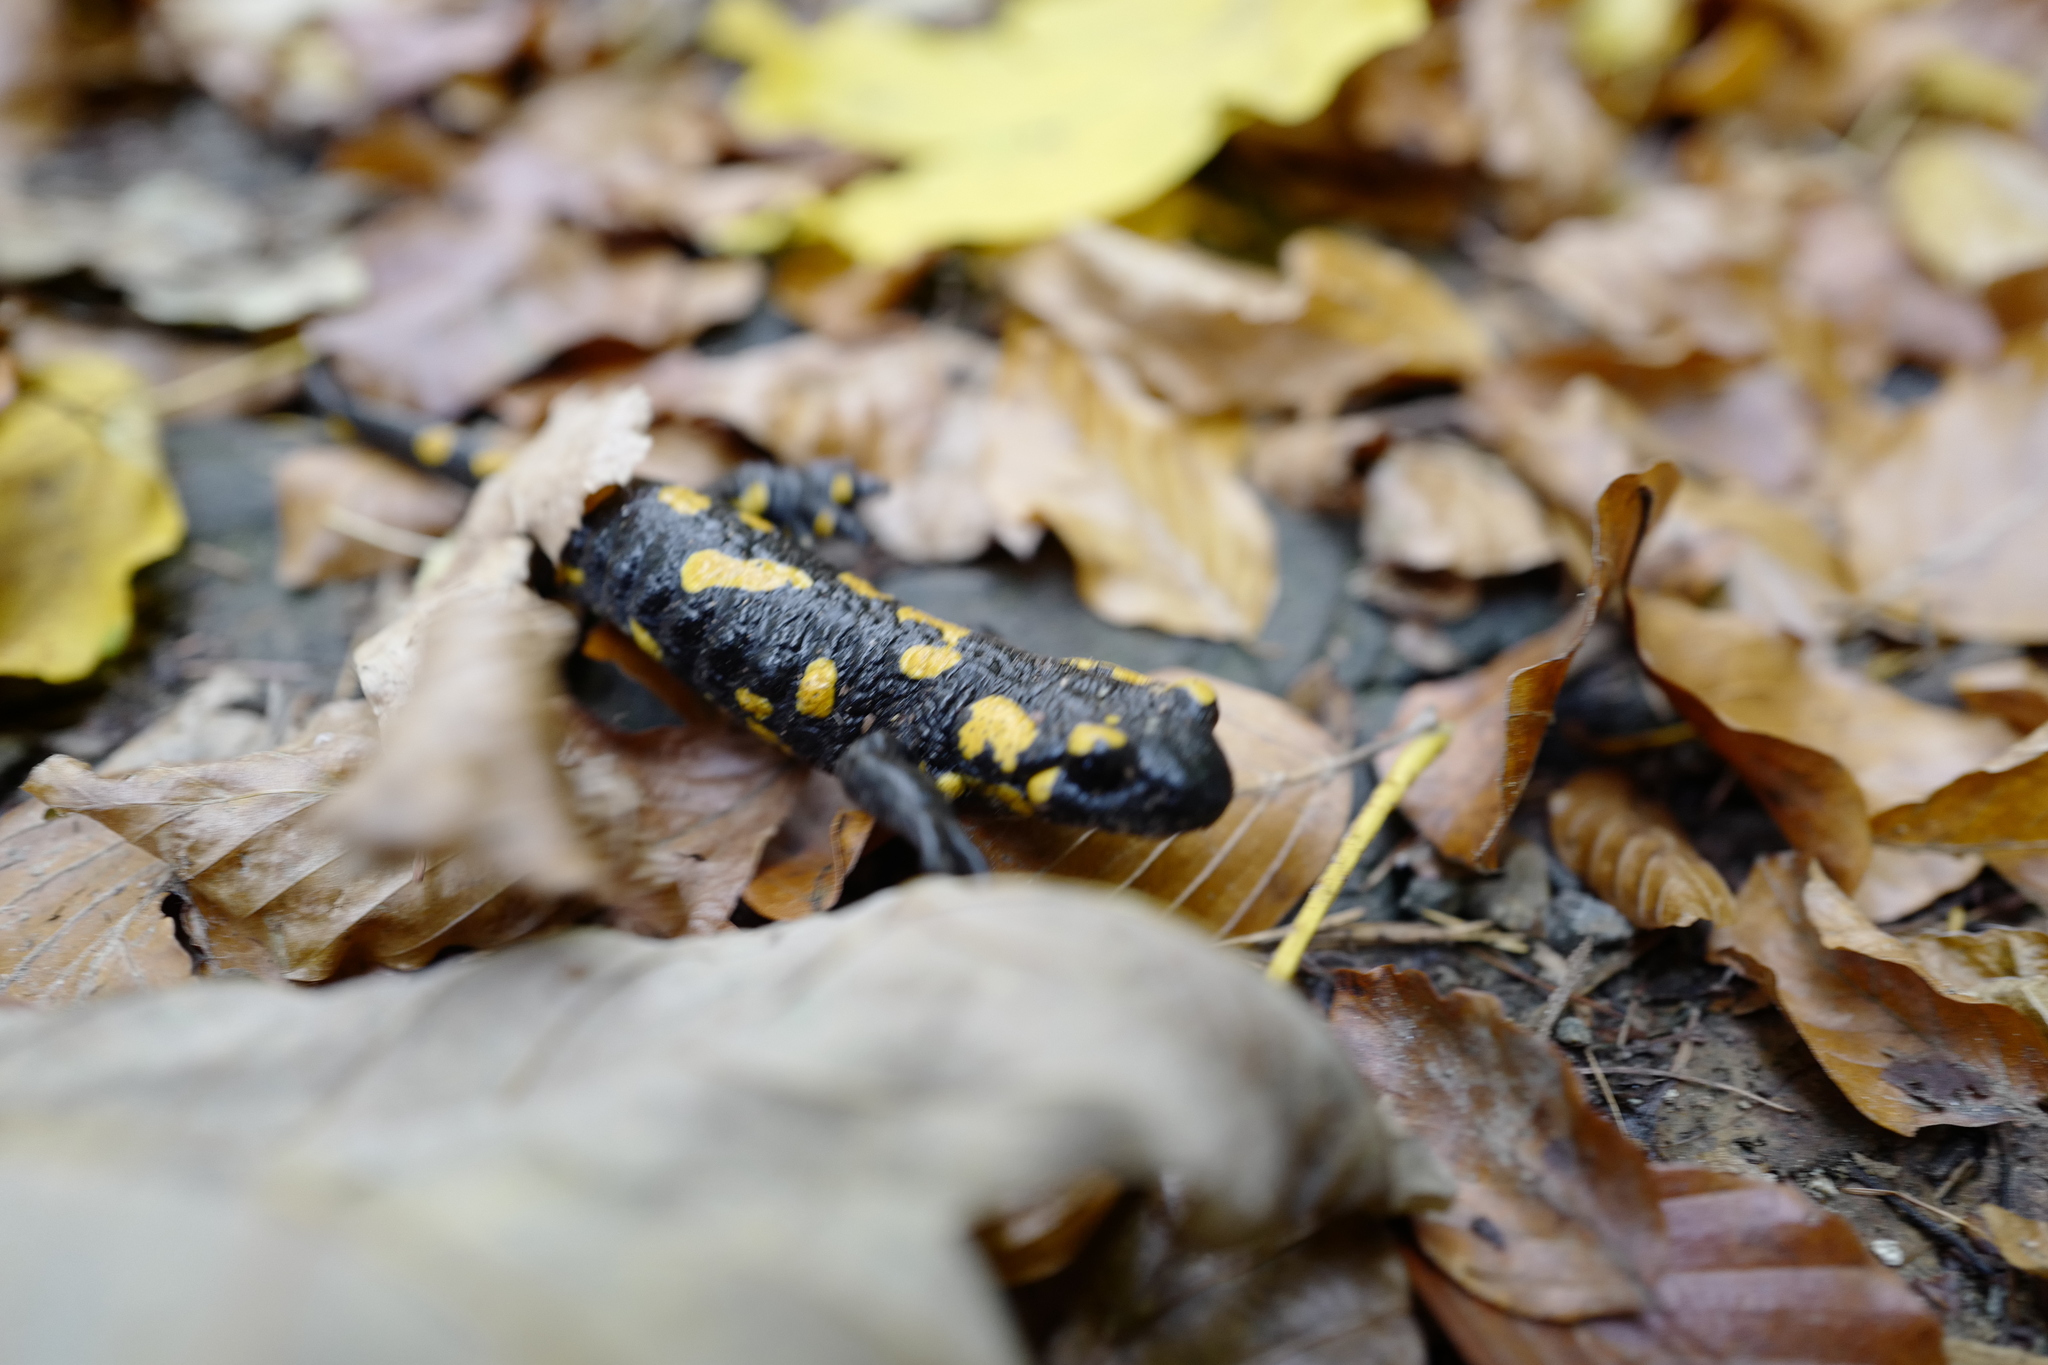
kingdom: Animalia
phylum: Chordata
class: Amphibia
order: Caudata
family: Salamandridae
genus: Salamandra
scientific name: Salamandra salamandra
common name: Fire salamander
